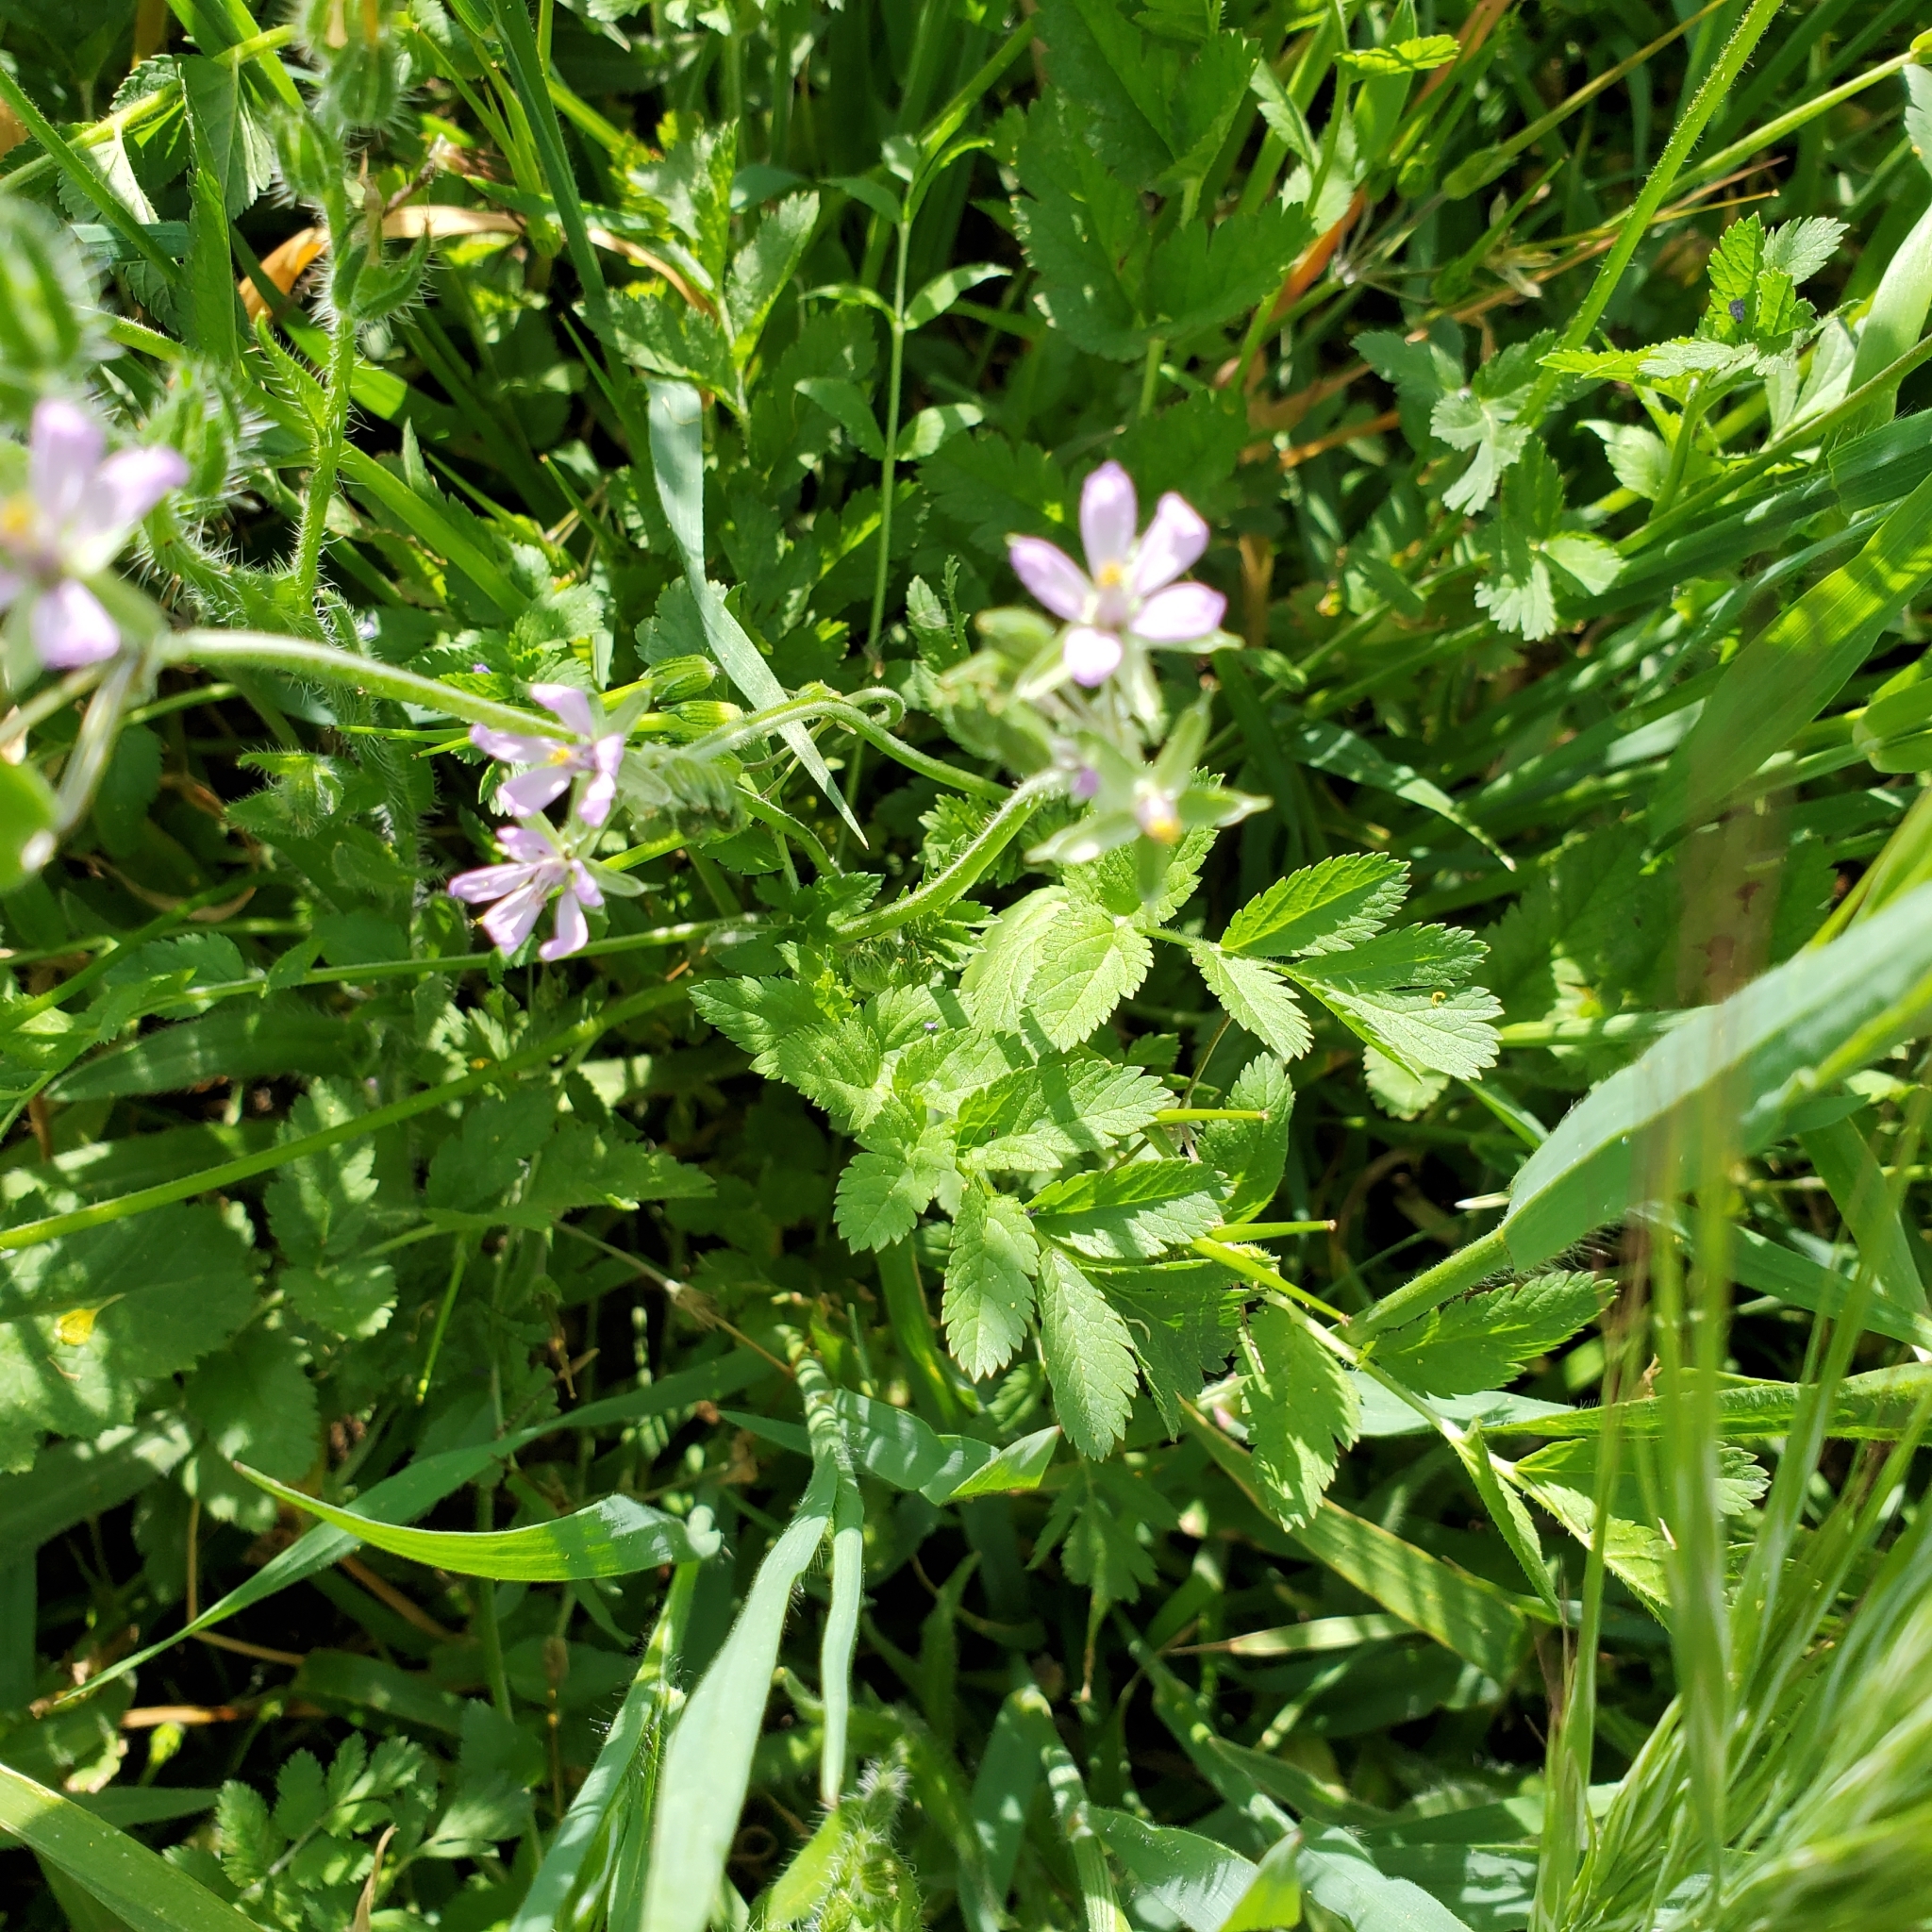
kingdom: Plantae
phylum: Tracheophyta
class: Magnoliopsida
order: Geraniales
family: Geraniaceae
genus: Erodium
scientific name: Erodium moschatum
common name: Musk stork's-bill
